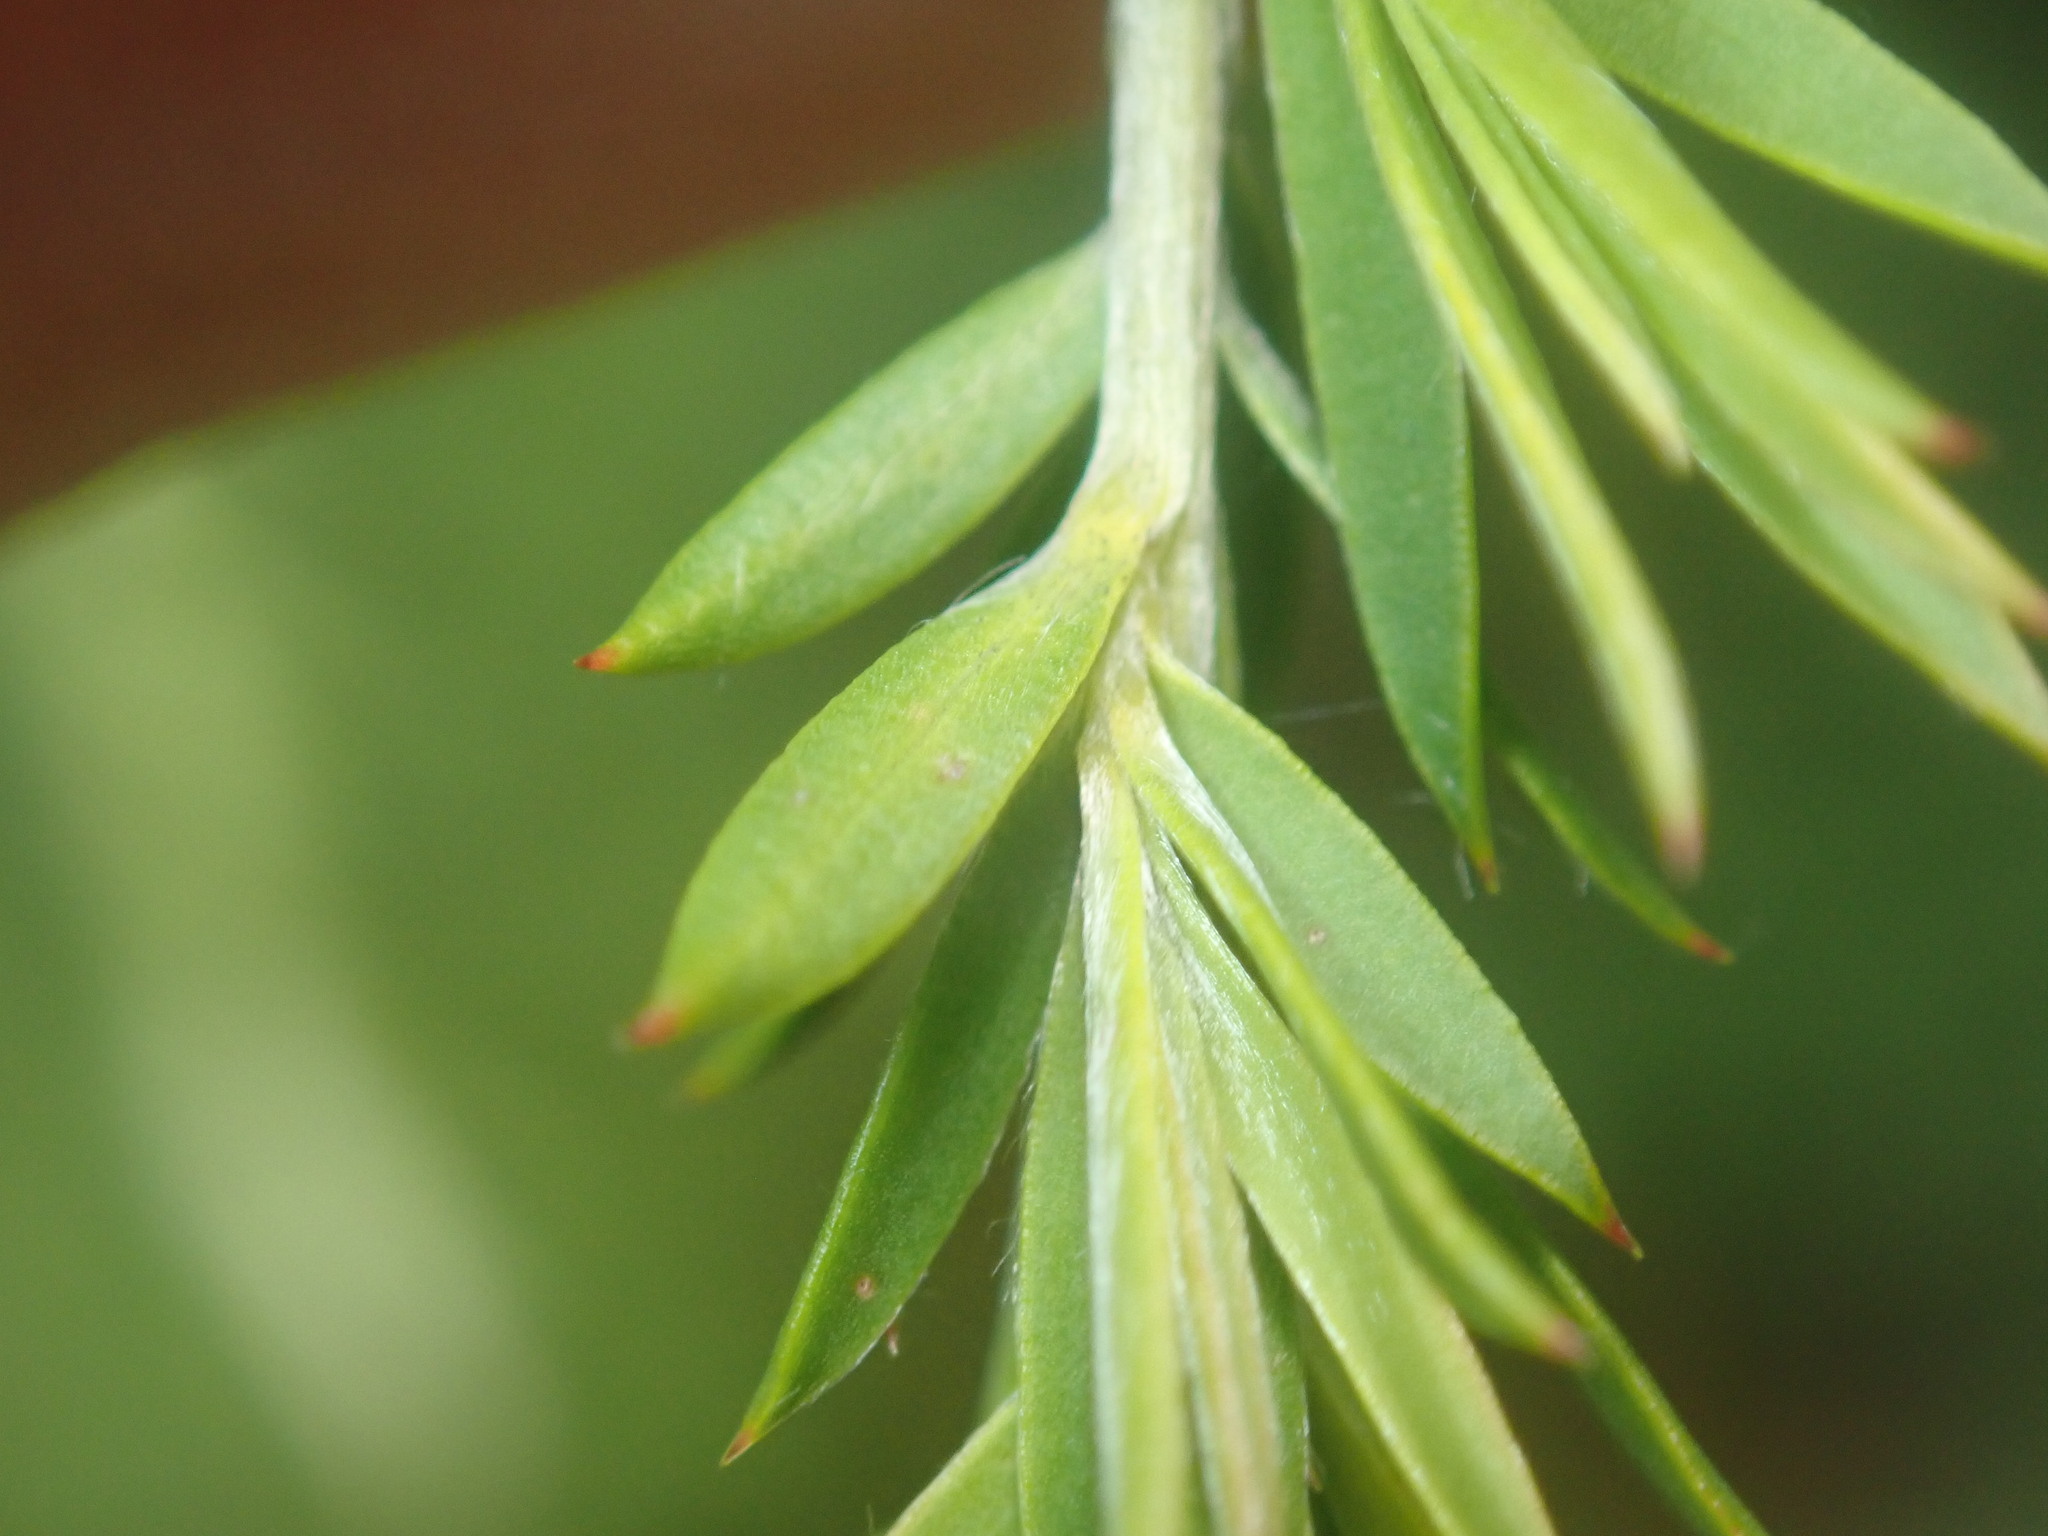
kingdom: Plantae
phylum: Tracheophyta
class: Magnoliopsida
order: Myrtales
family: Myrtaceae
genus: Leptospermum
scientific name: Leptospermum juniperinum
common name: Prickly teatree
